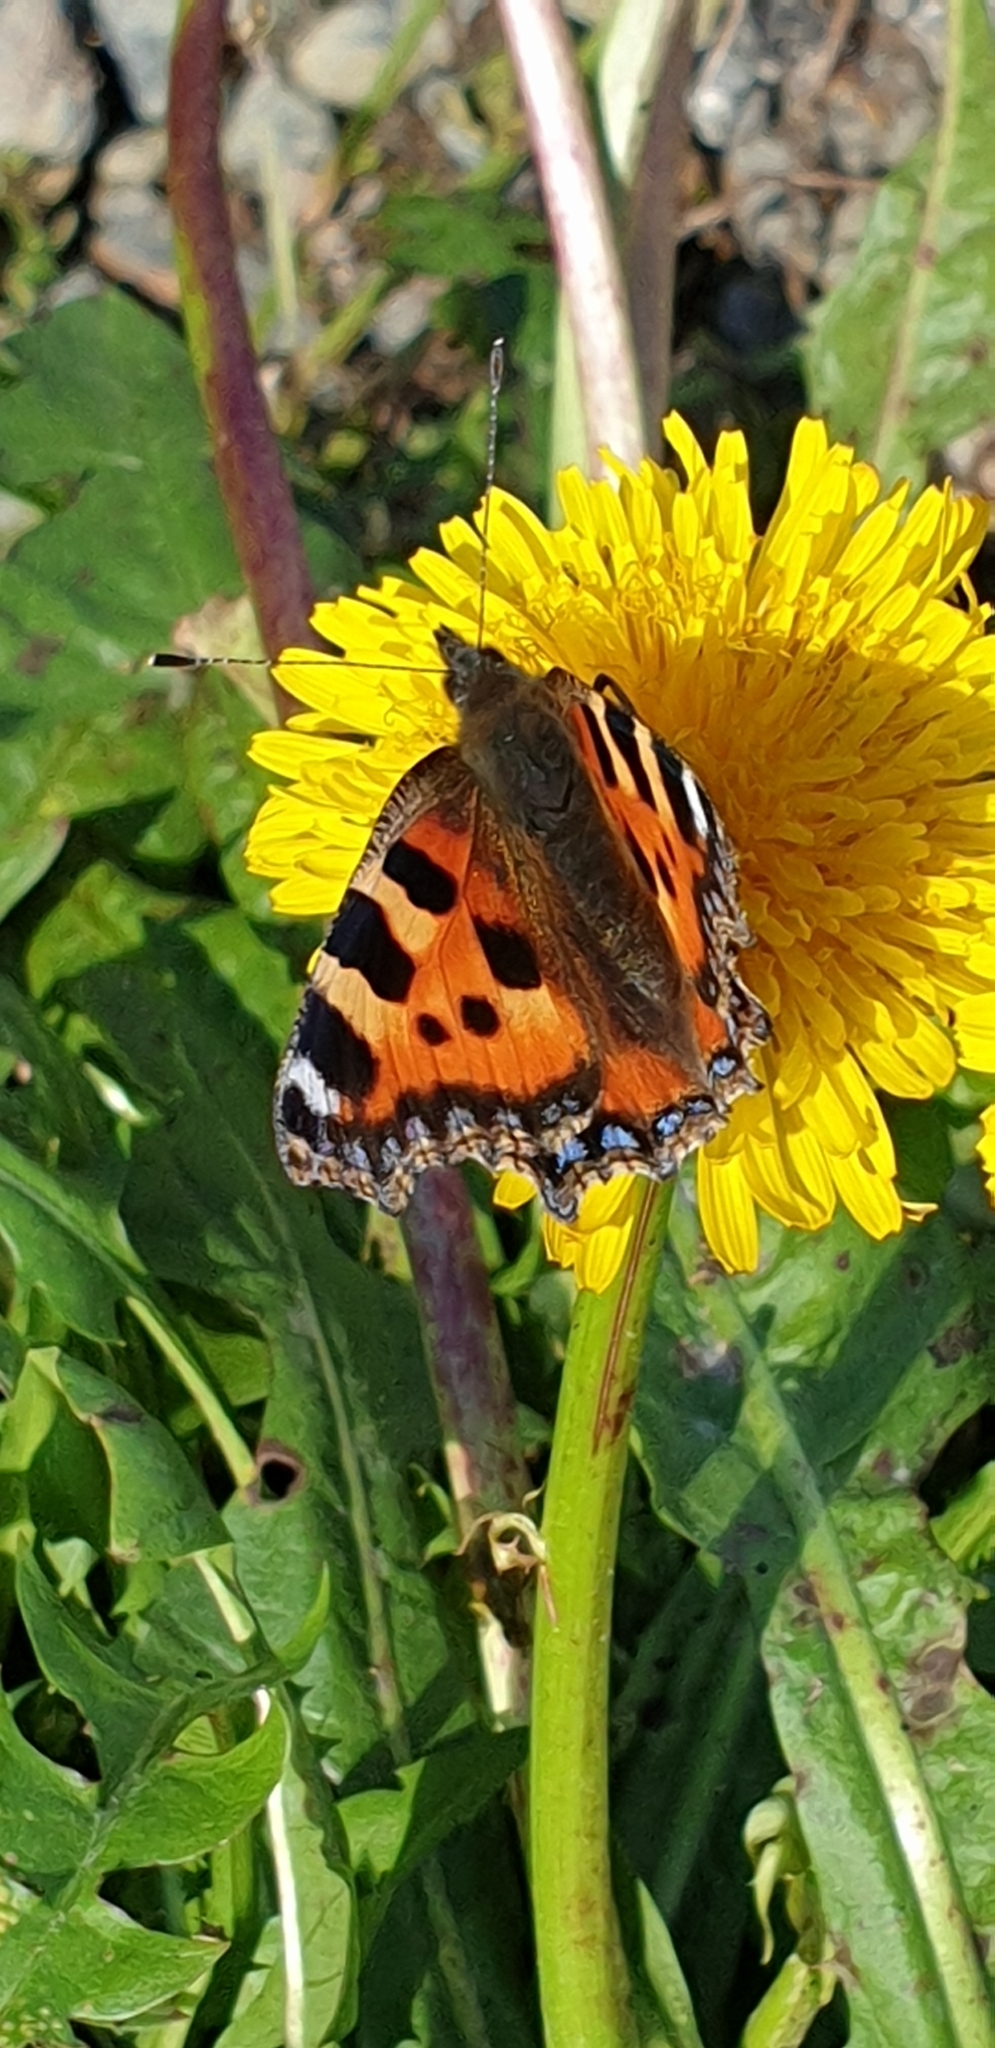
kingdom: Animalia
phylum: Arthropoda
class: Insecta
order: Lepidoptera
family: Nymphalidae
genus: Aglais
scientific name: Aglais urticae
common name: Small tortoiseshell
